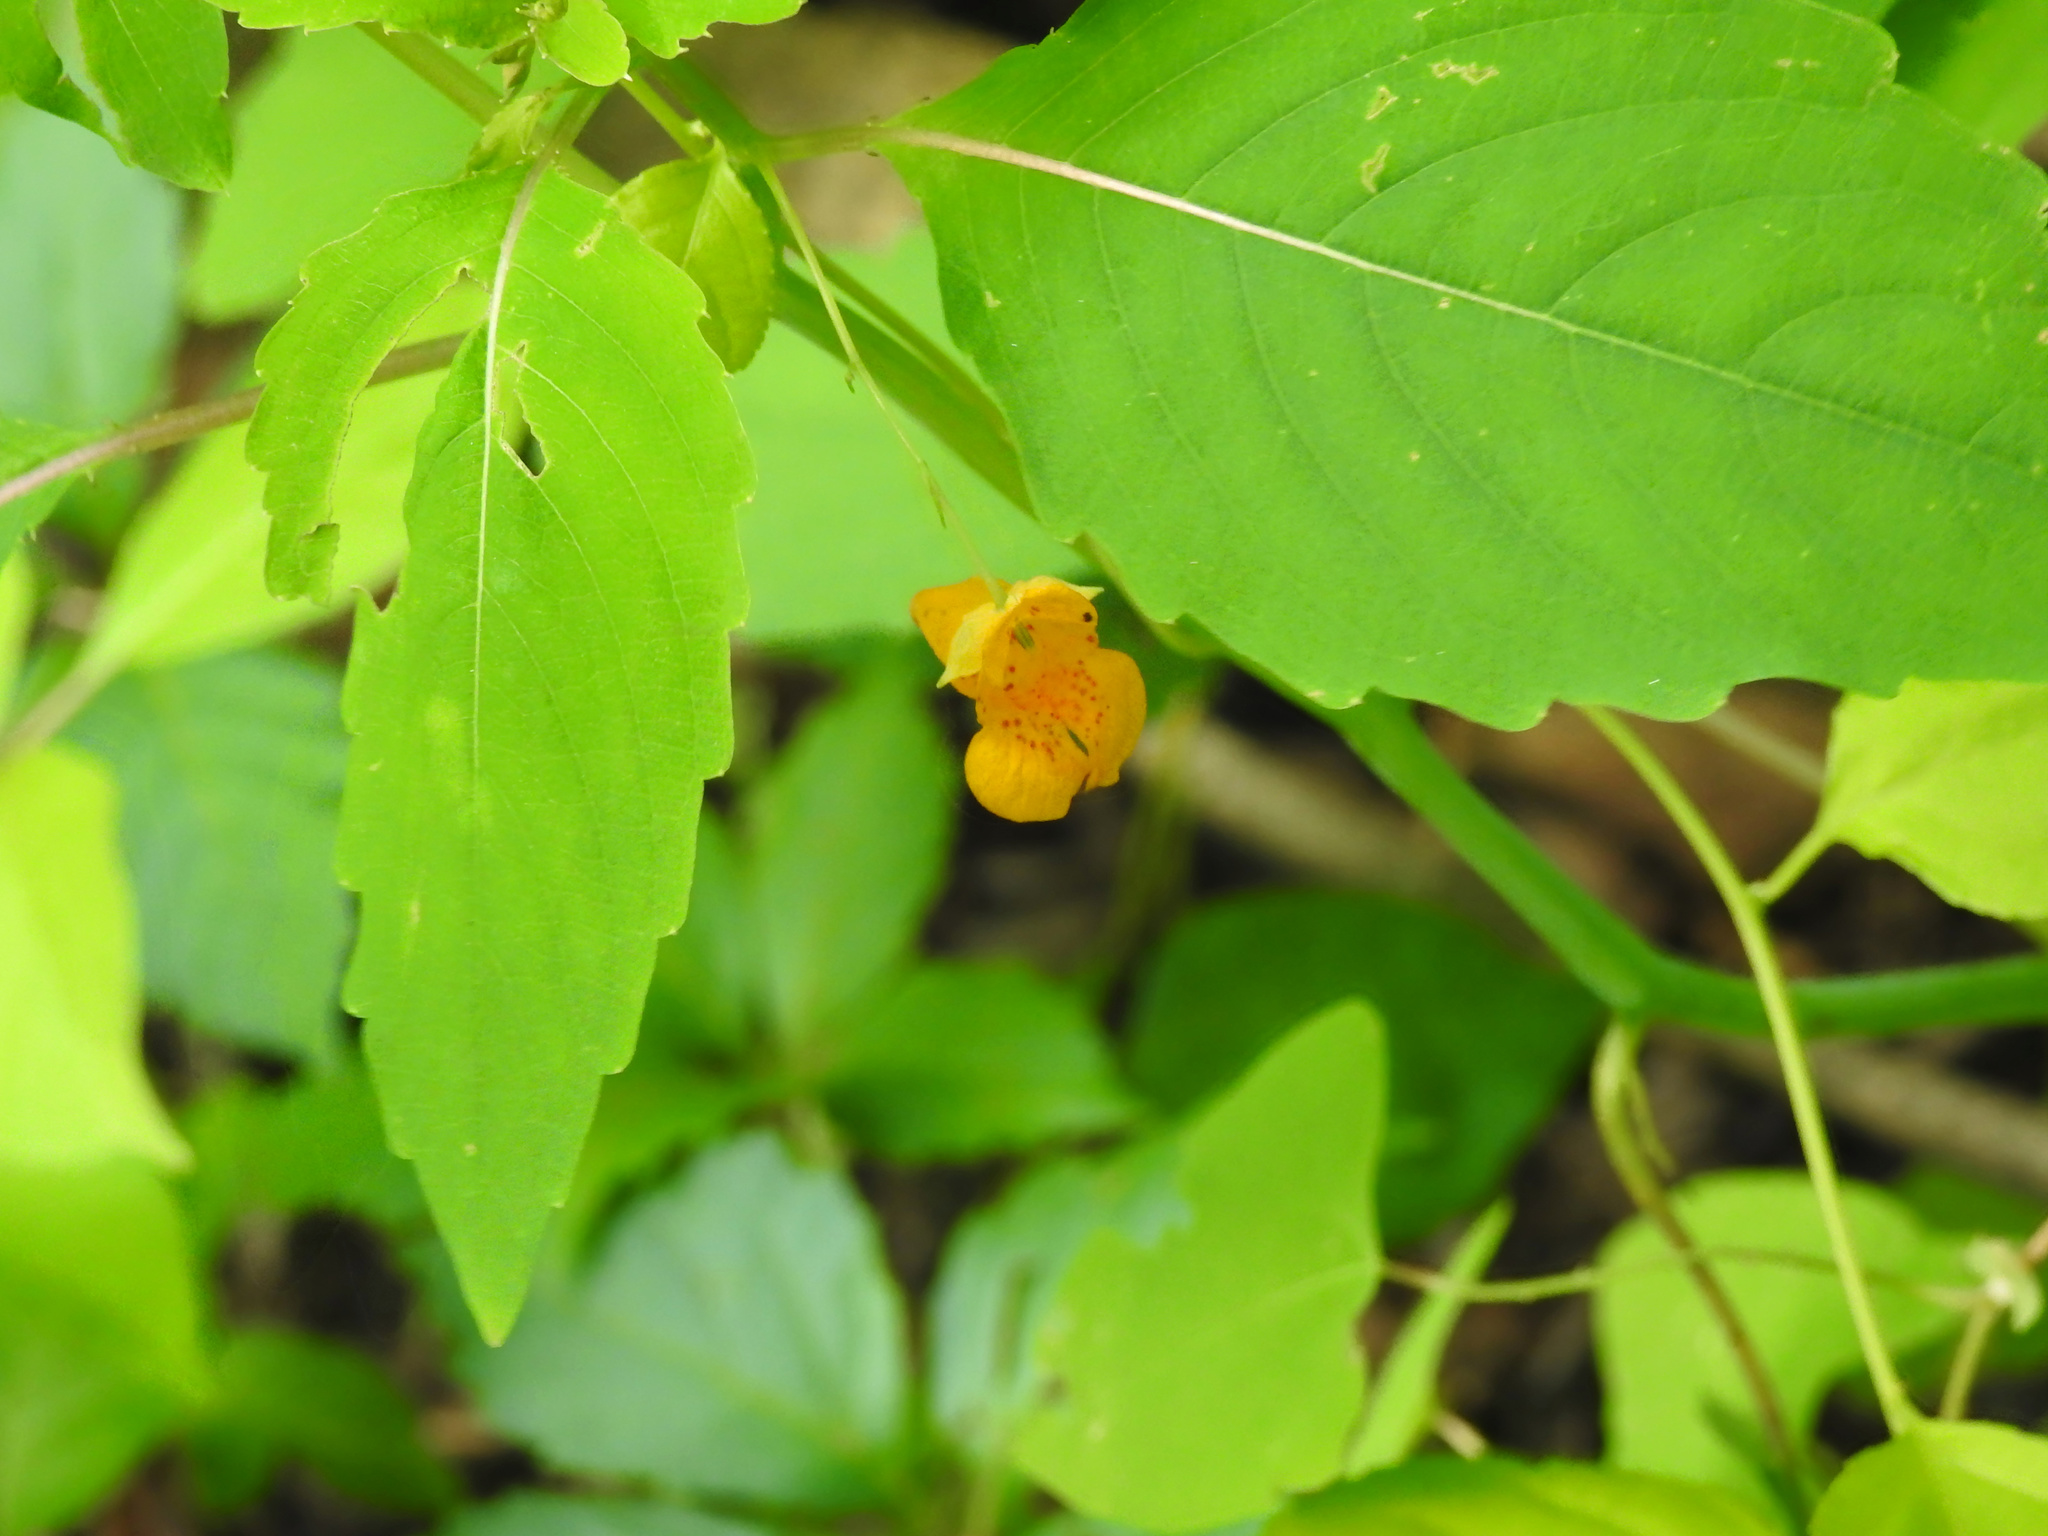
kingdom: Plantae
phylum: Tracheophyta
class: Magnoliopsida
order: Ericales
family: Balsaminaceae
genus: Impatiens
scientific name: Impatiens capensis
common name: Orange balsam
